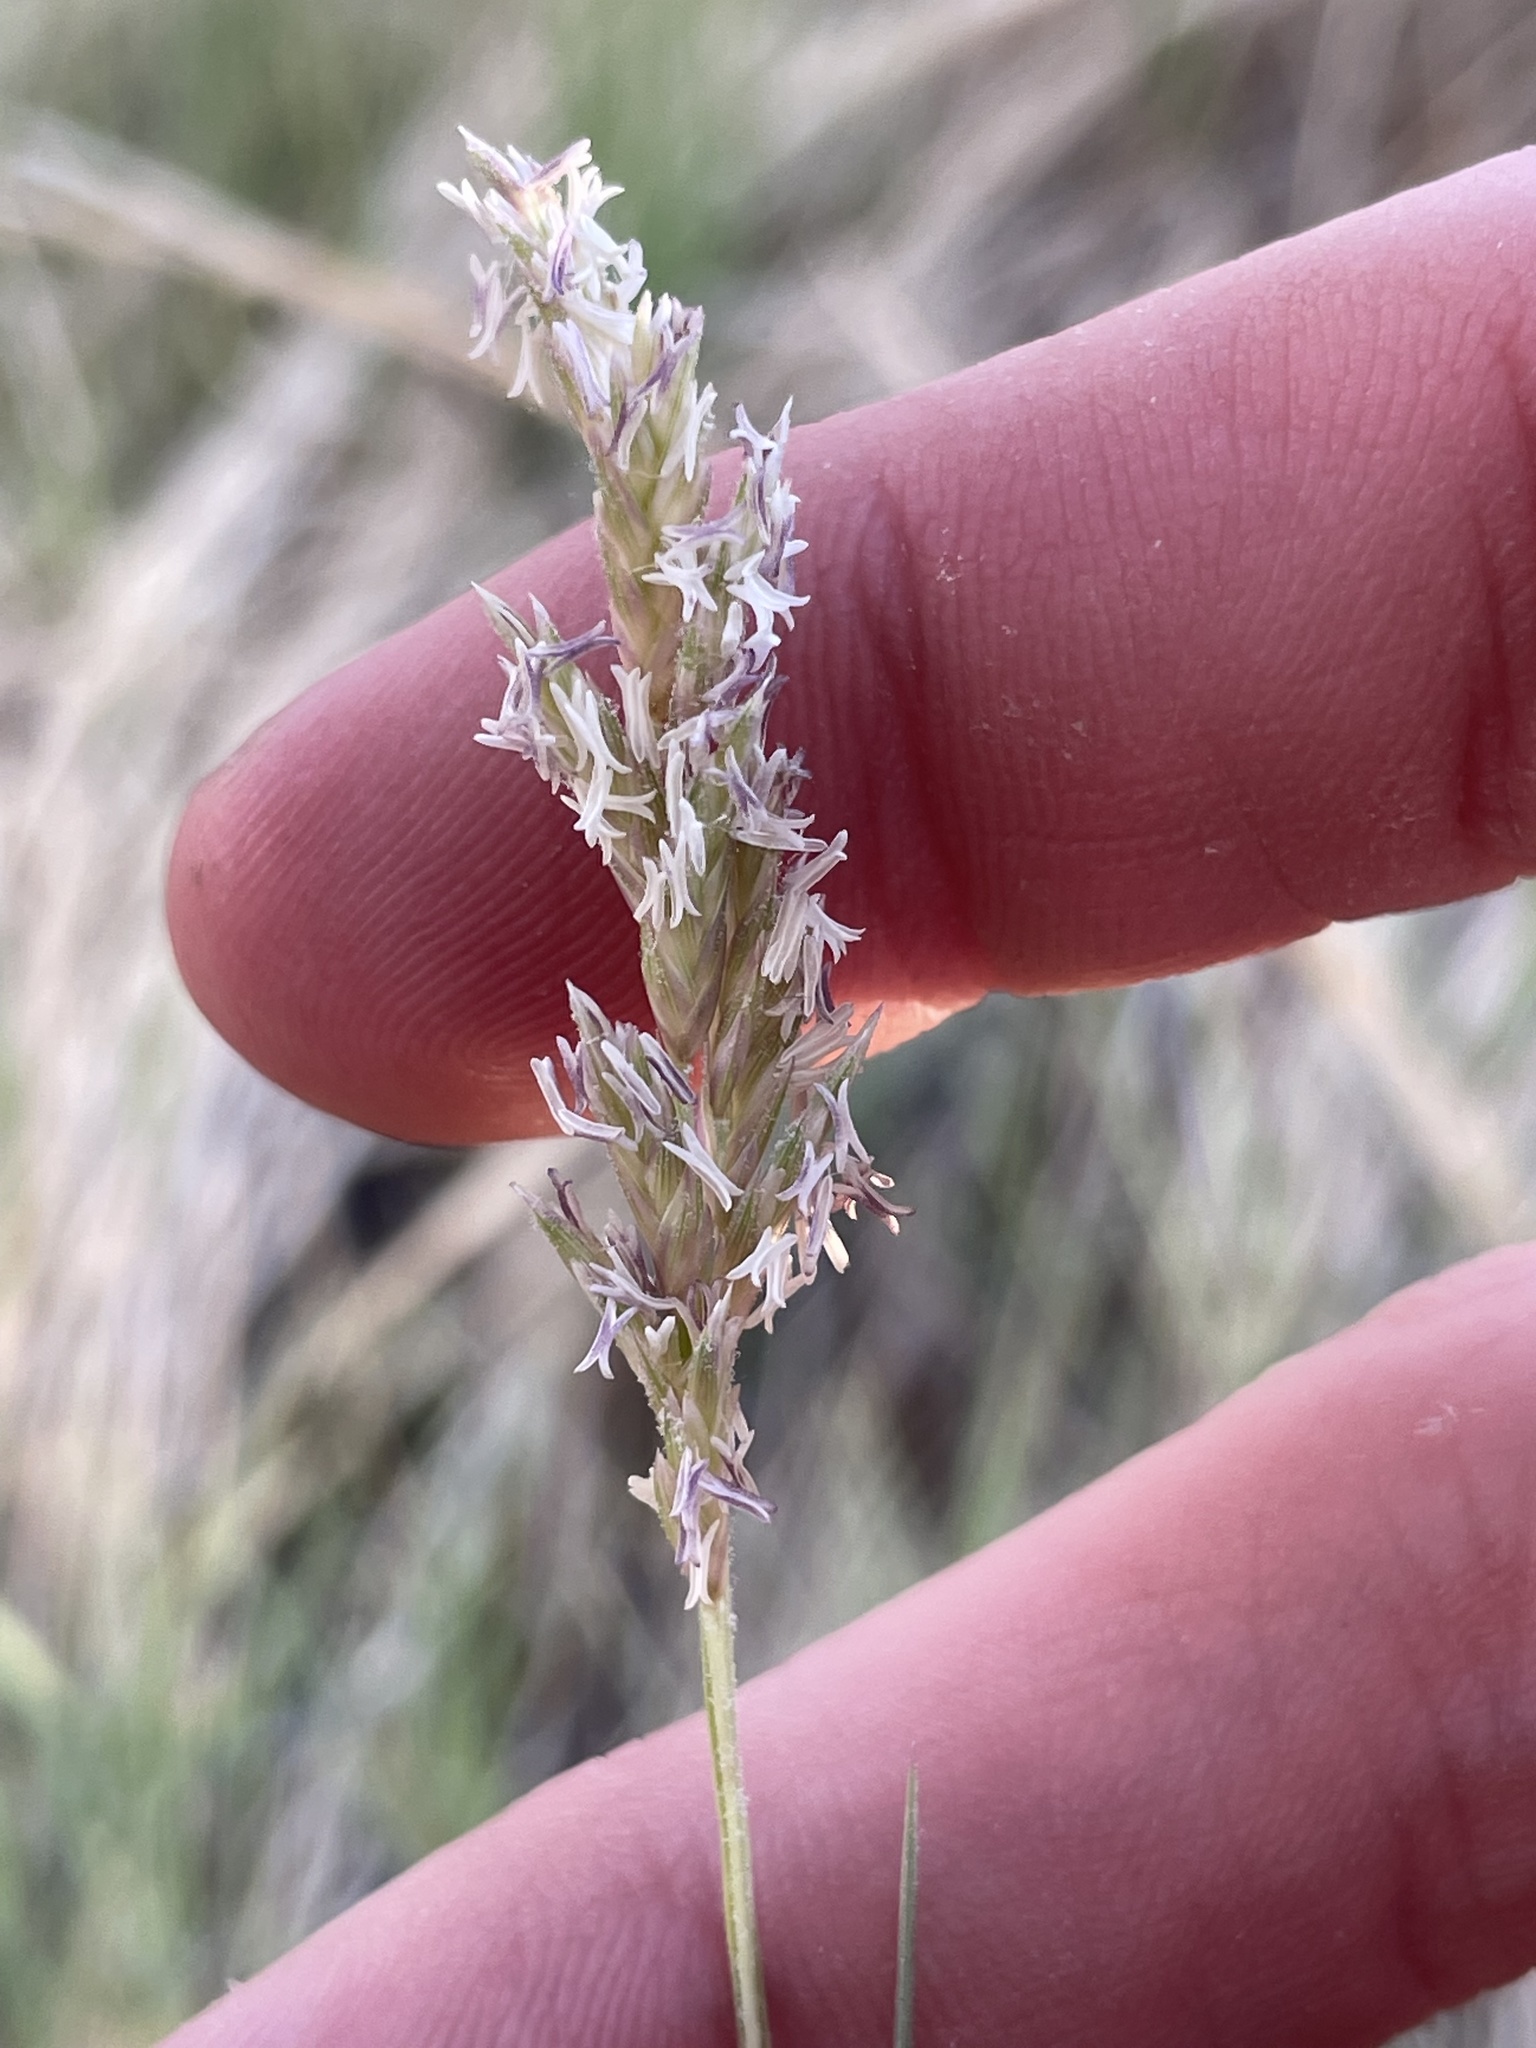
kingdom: Plantae
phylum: Tracheophyta
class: Liliopsida
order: Poales
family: Poaceae
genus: Distichlis
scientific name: Distichlis spicata
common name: Saltgrass
